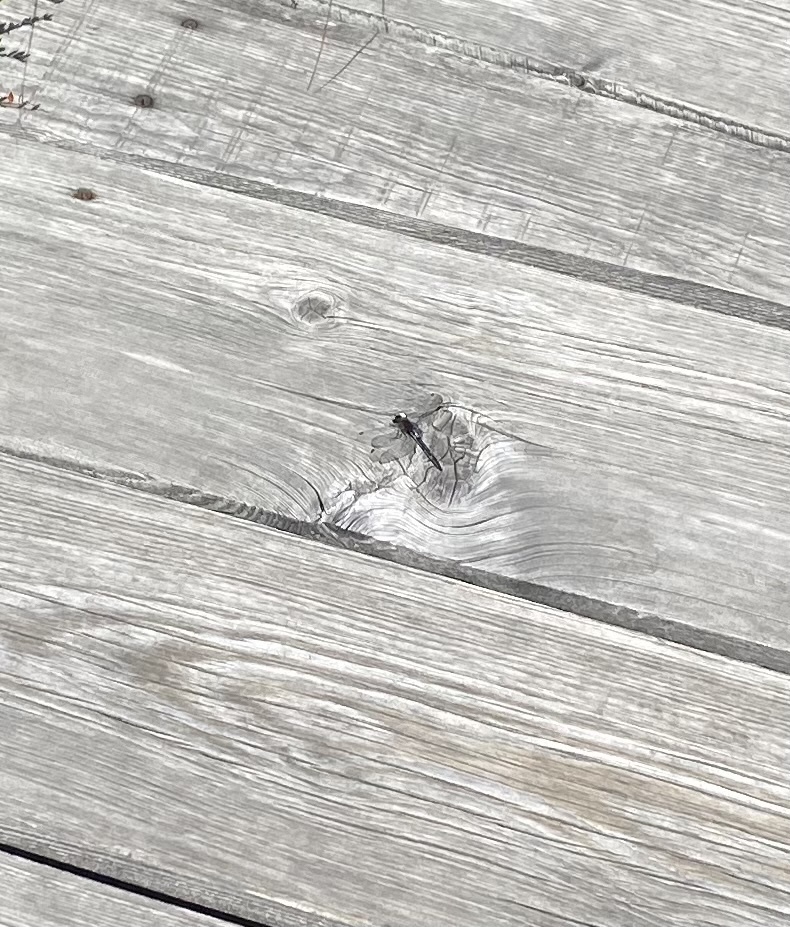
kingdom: Animalia
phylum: Arthropoda
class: Insecta
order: Odonata
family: Libellulidae
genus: Leucorrhinia
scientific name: Leucorrhinia orientalis
